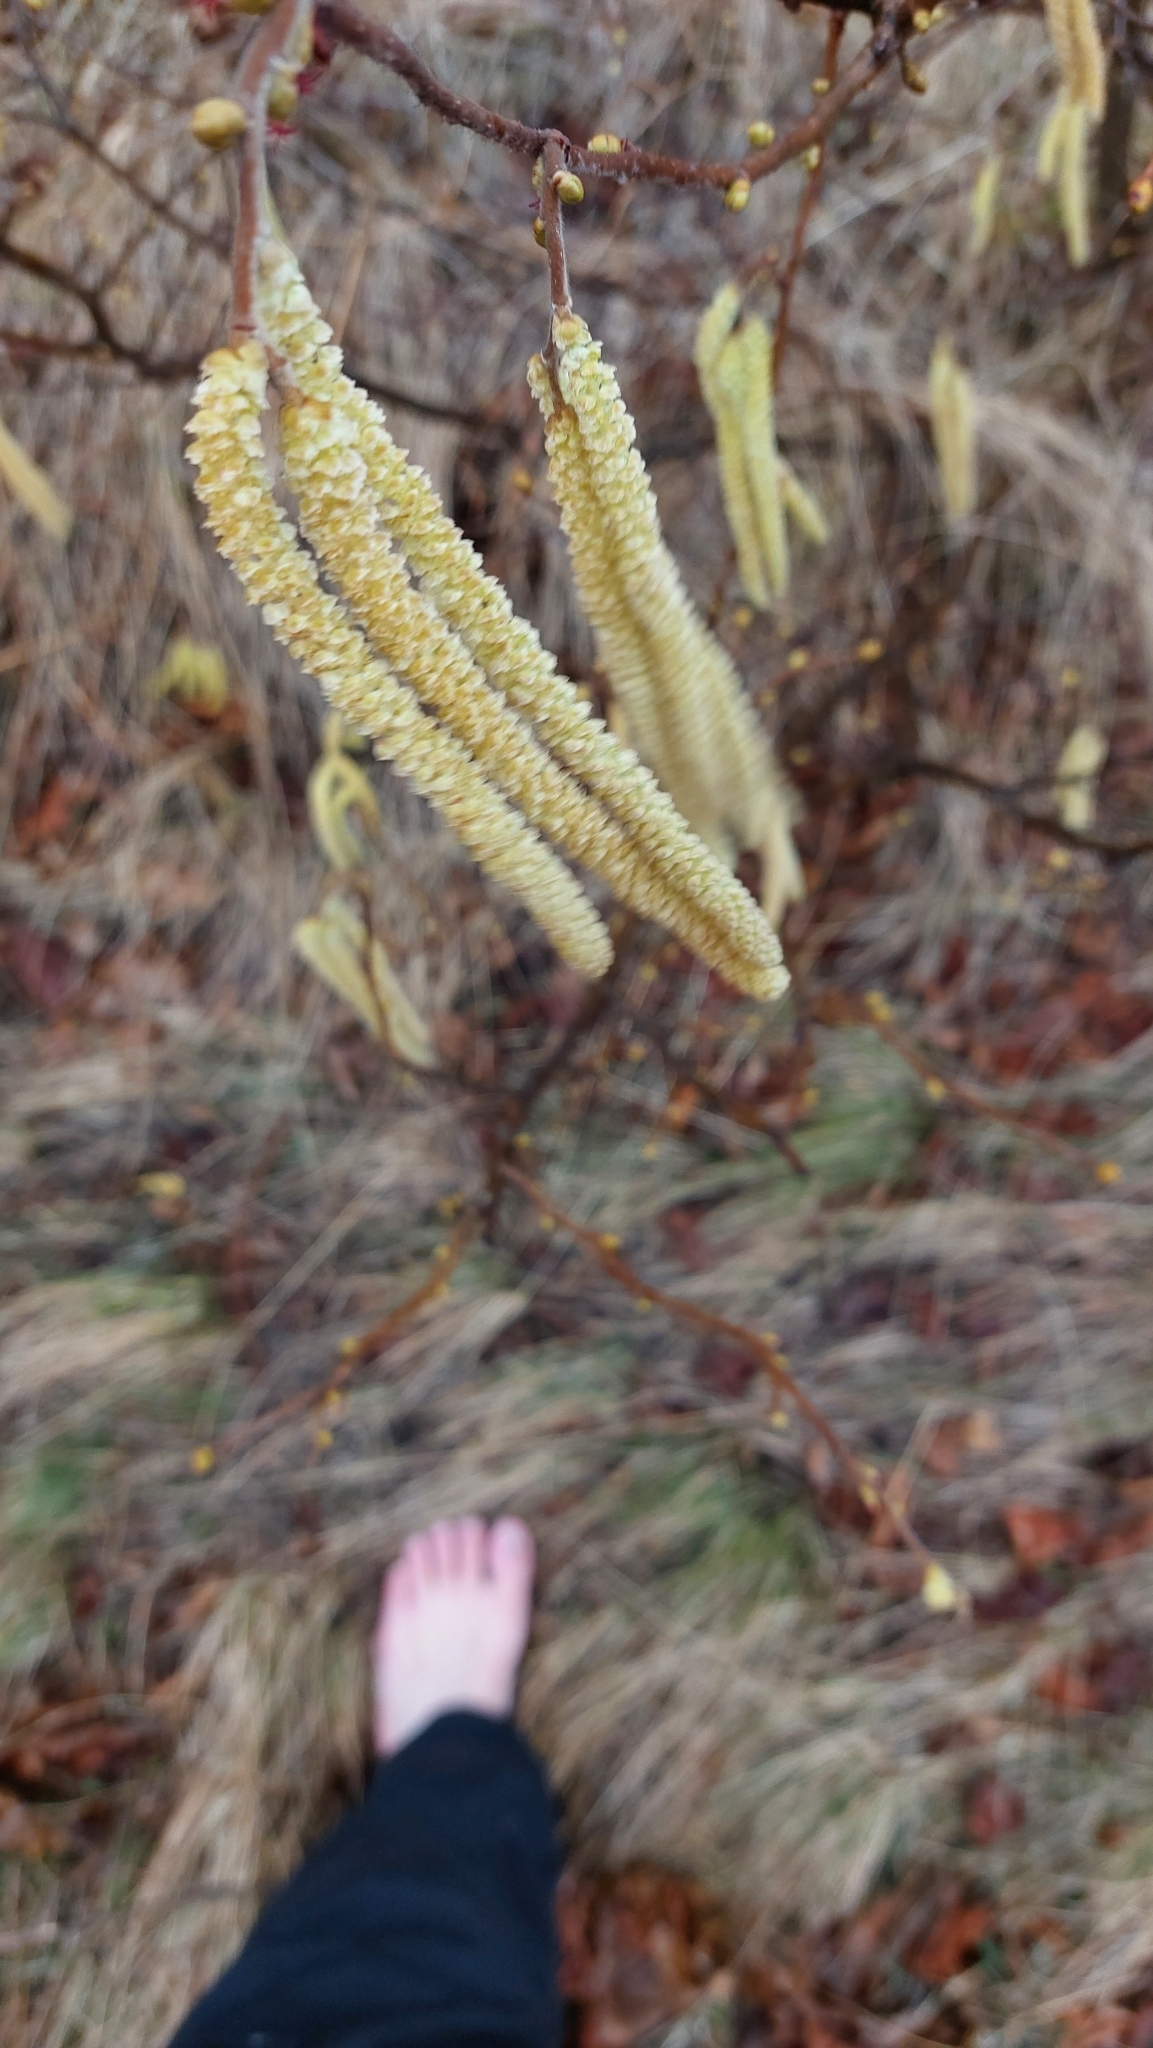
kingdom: Plantae
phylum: Tracheophyta
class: Magnoliopsida
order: Fagales
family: Betulaceae
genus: Corylus
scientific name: Corylus avellana
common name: European hazel
